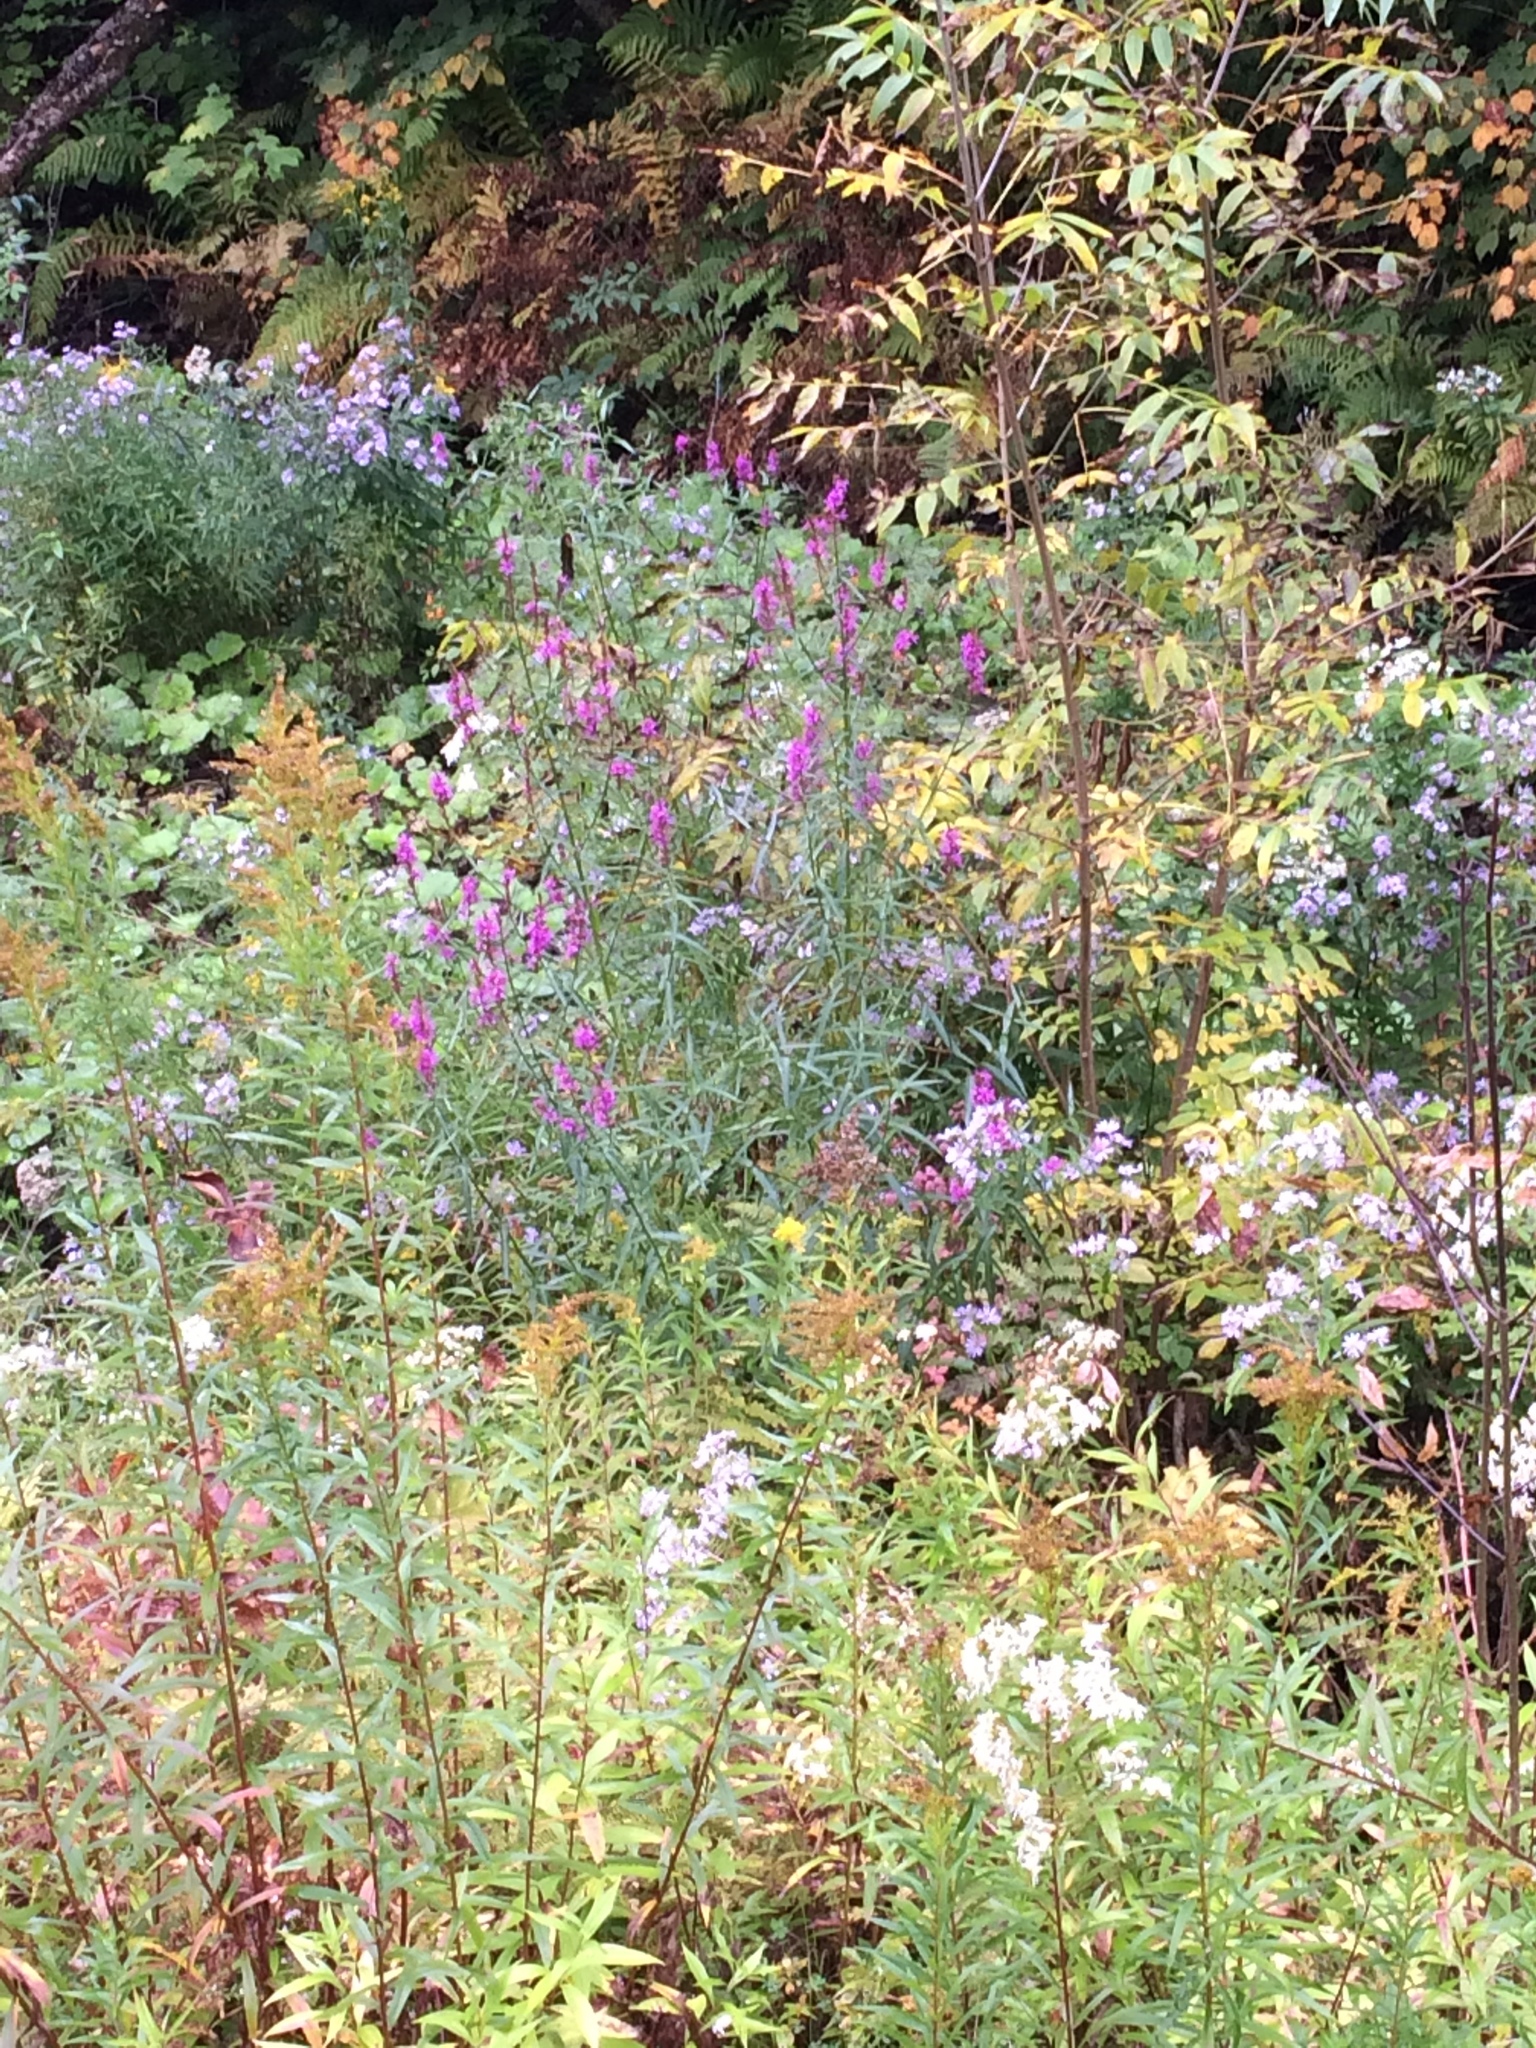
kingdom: Plantae
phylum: Tracheophyta
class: Magnoliopsida
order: Myrtales
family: Lythraceae
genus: Lythrum
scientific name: Lythrum salicaria
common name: Purple loosestrife
